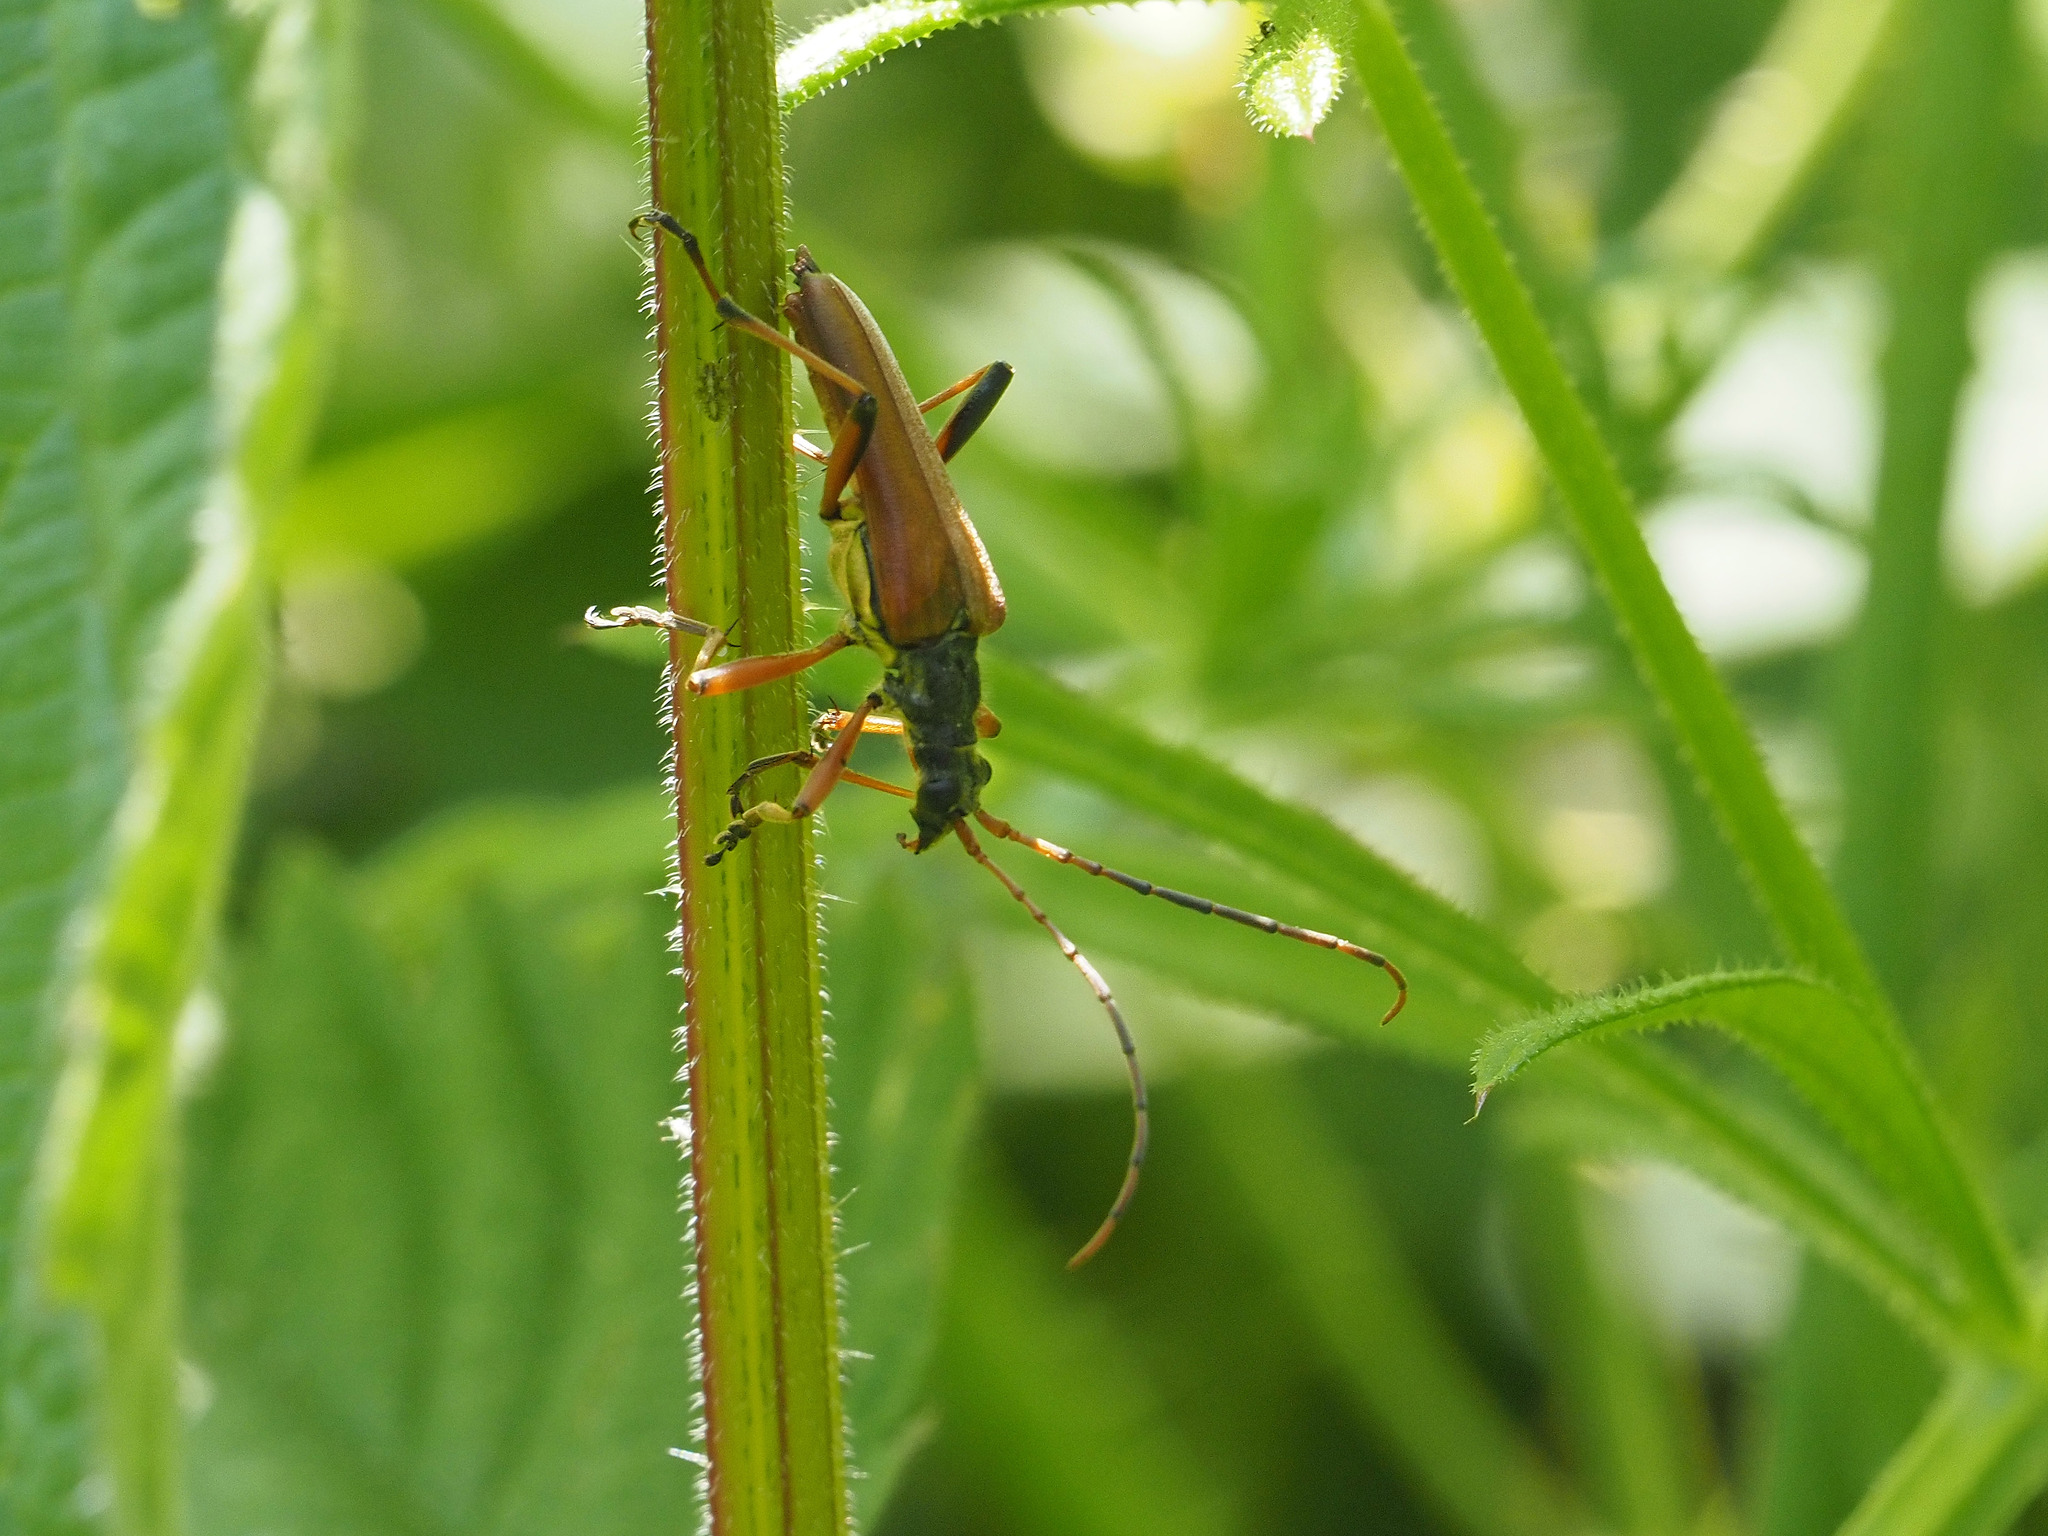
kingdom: Animalia
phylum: Arthropoda
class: Insecta
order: Coleoptera
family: Cerambycidae
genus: Stenocorus
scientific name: Stenocorus meridianus
